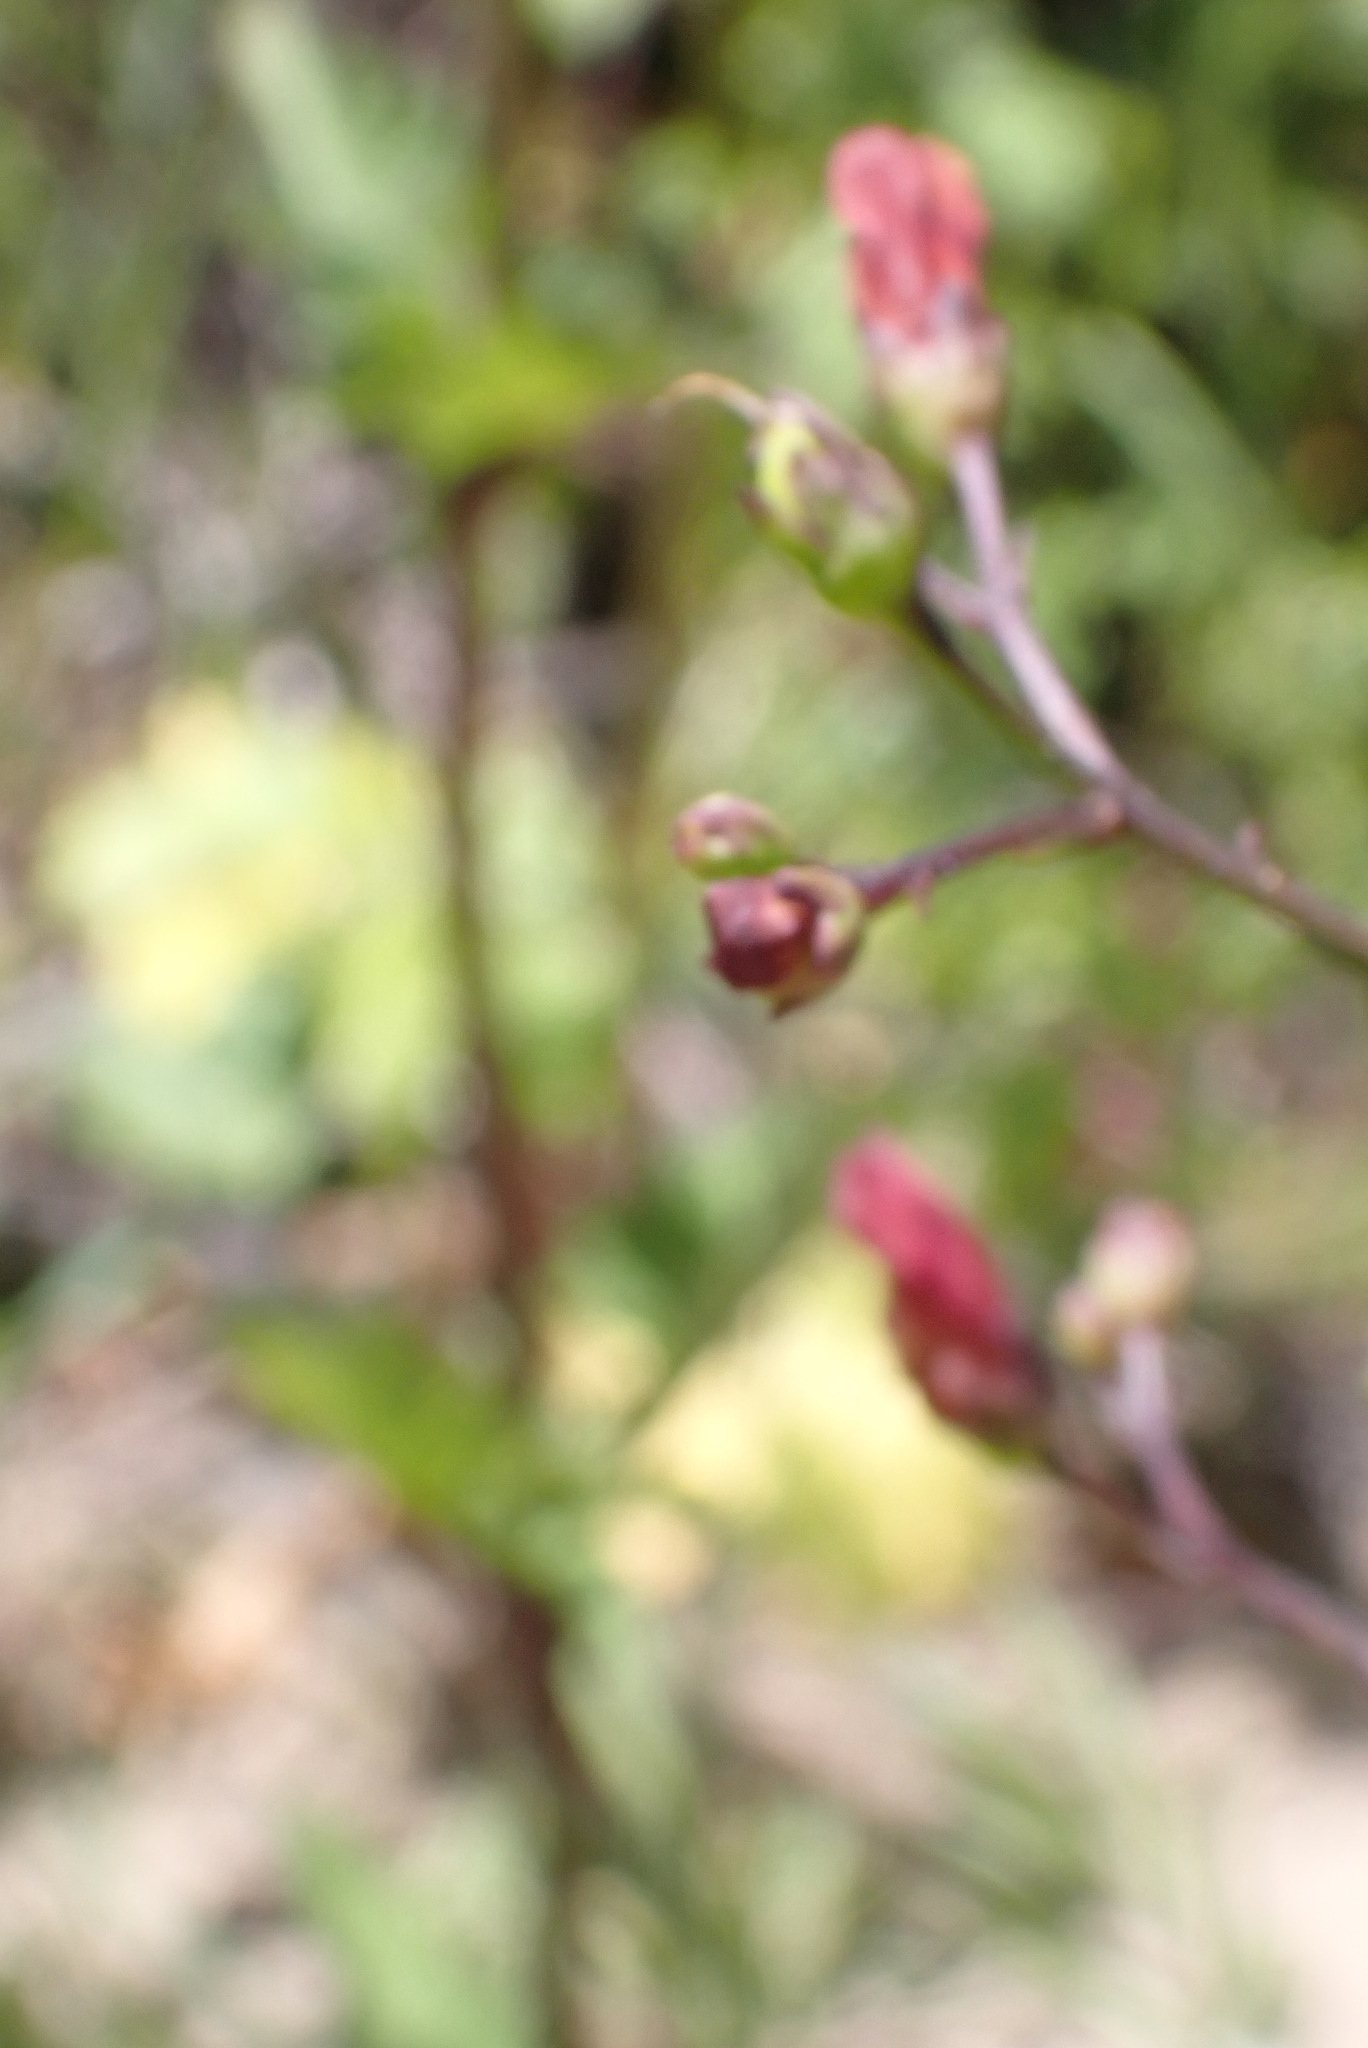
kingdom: Plantae
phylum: Tracheophyta
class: Magnoliopsida
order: Lamiales
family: Scrophulariaceae
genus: Scrophularia
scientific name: Scrophularia californica
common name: California figwort
